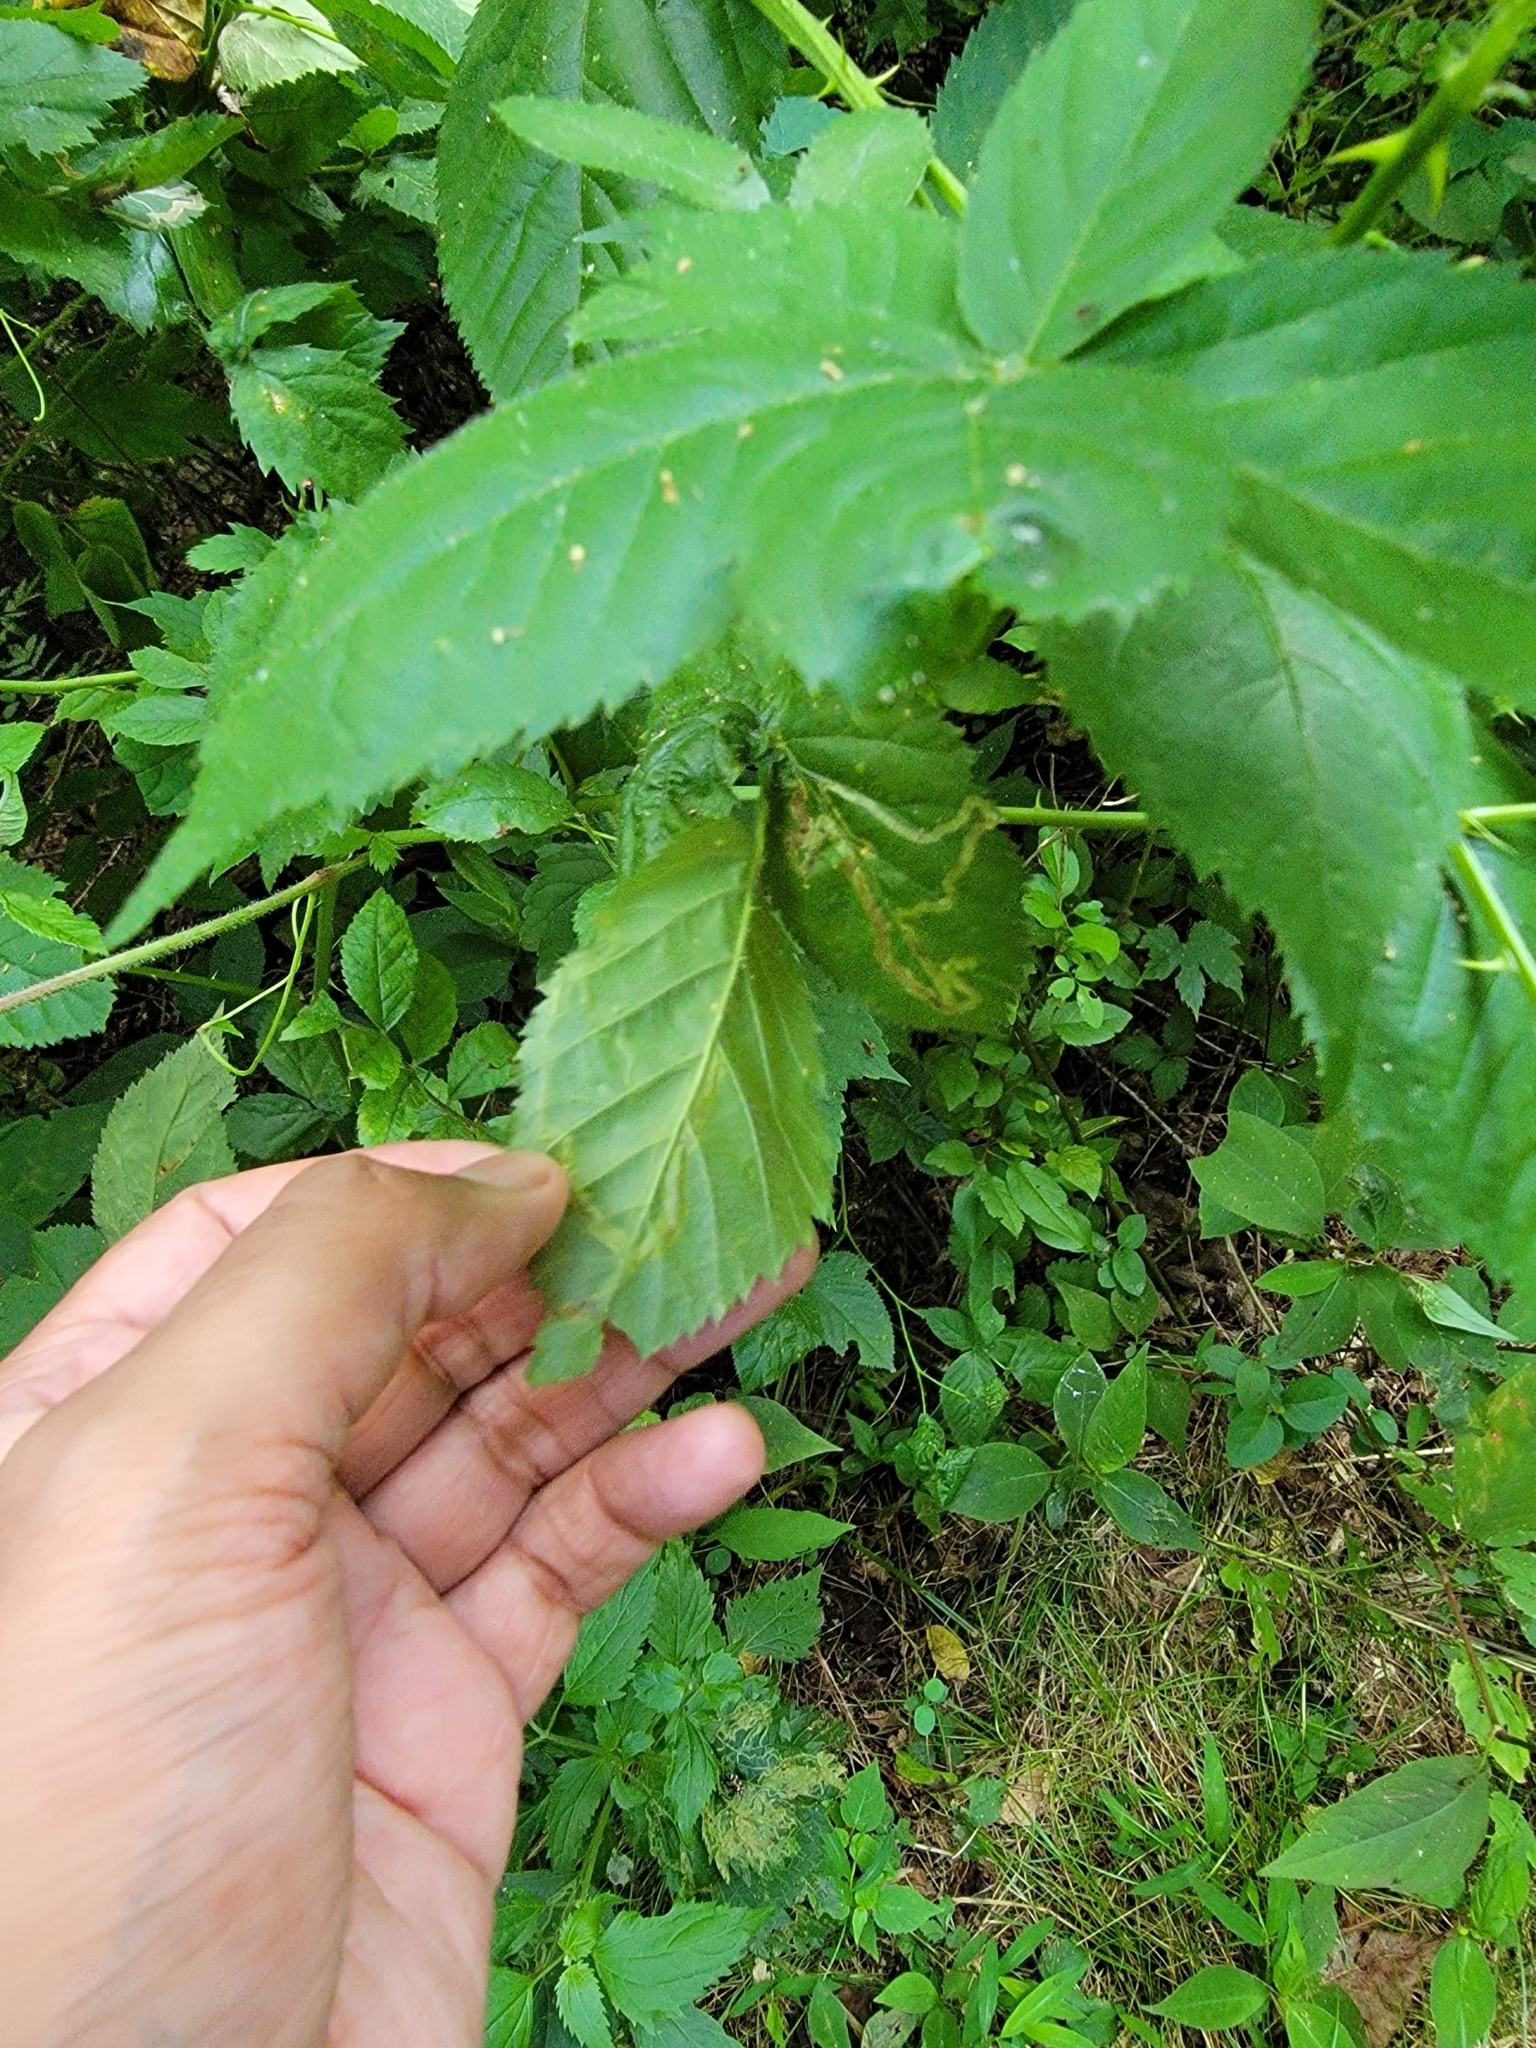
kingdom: Animalia
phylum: Arthropoda
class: Insecta
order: Diptera
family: Agromyzidae
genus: Agromyza
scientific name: Agromyza vockerothi
